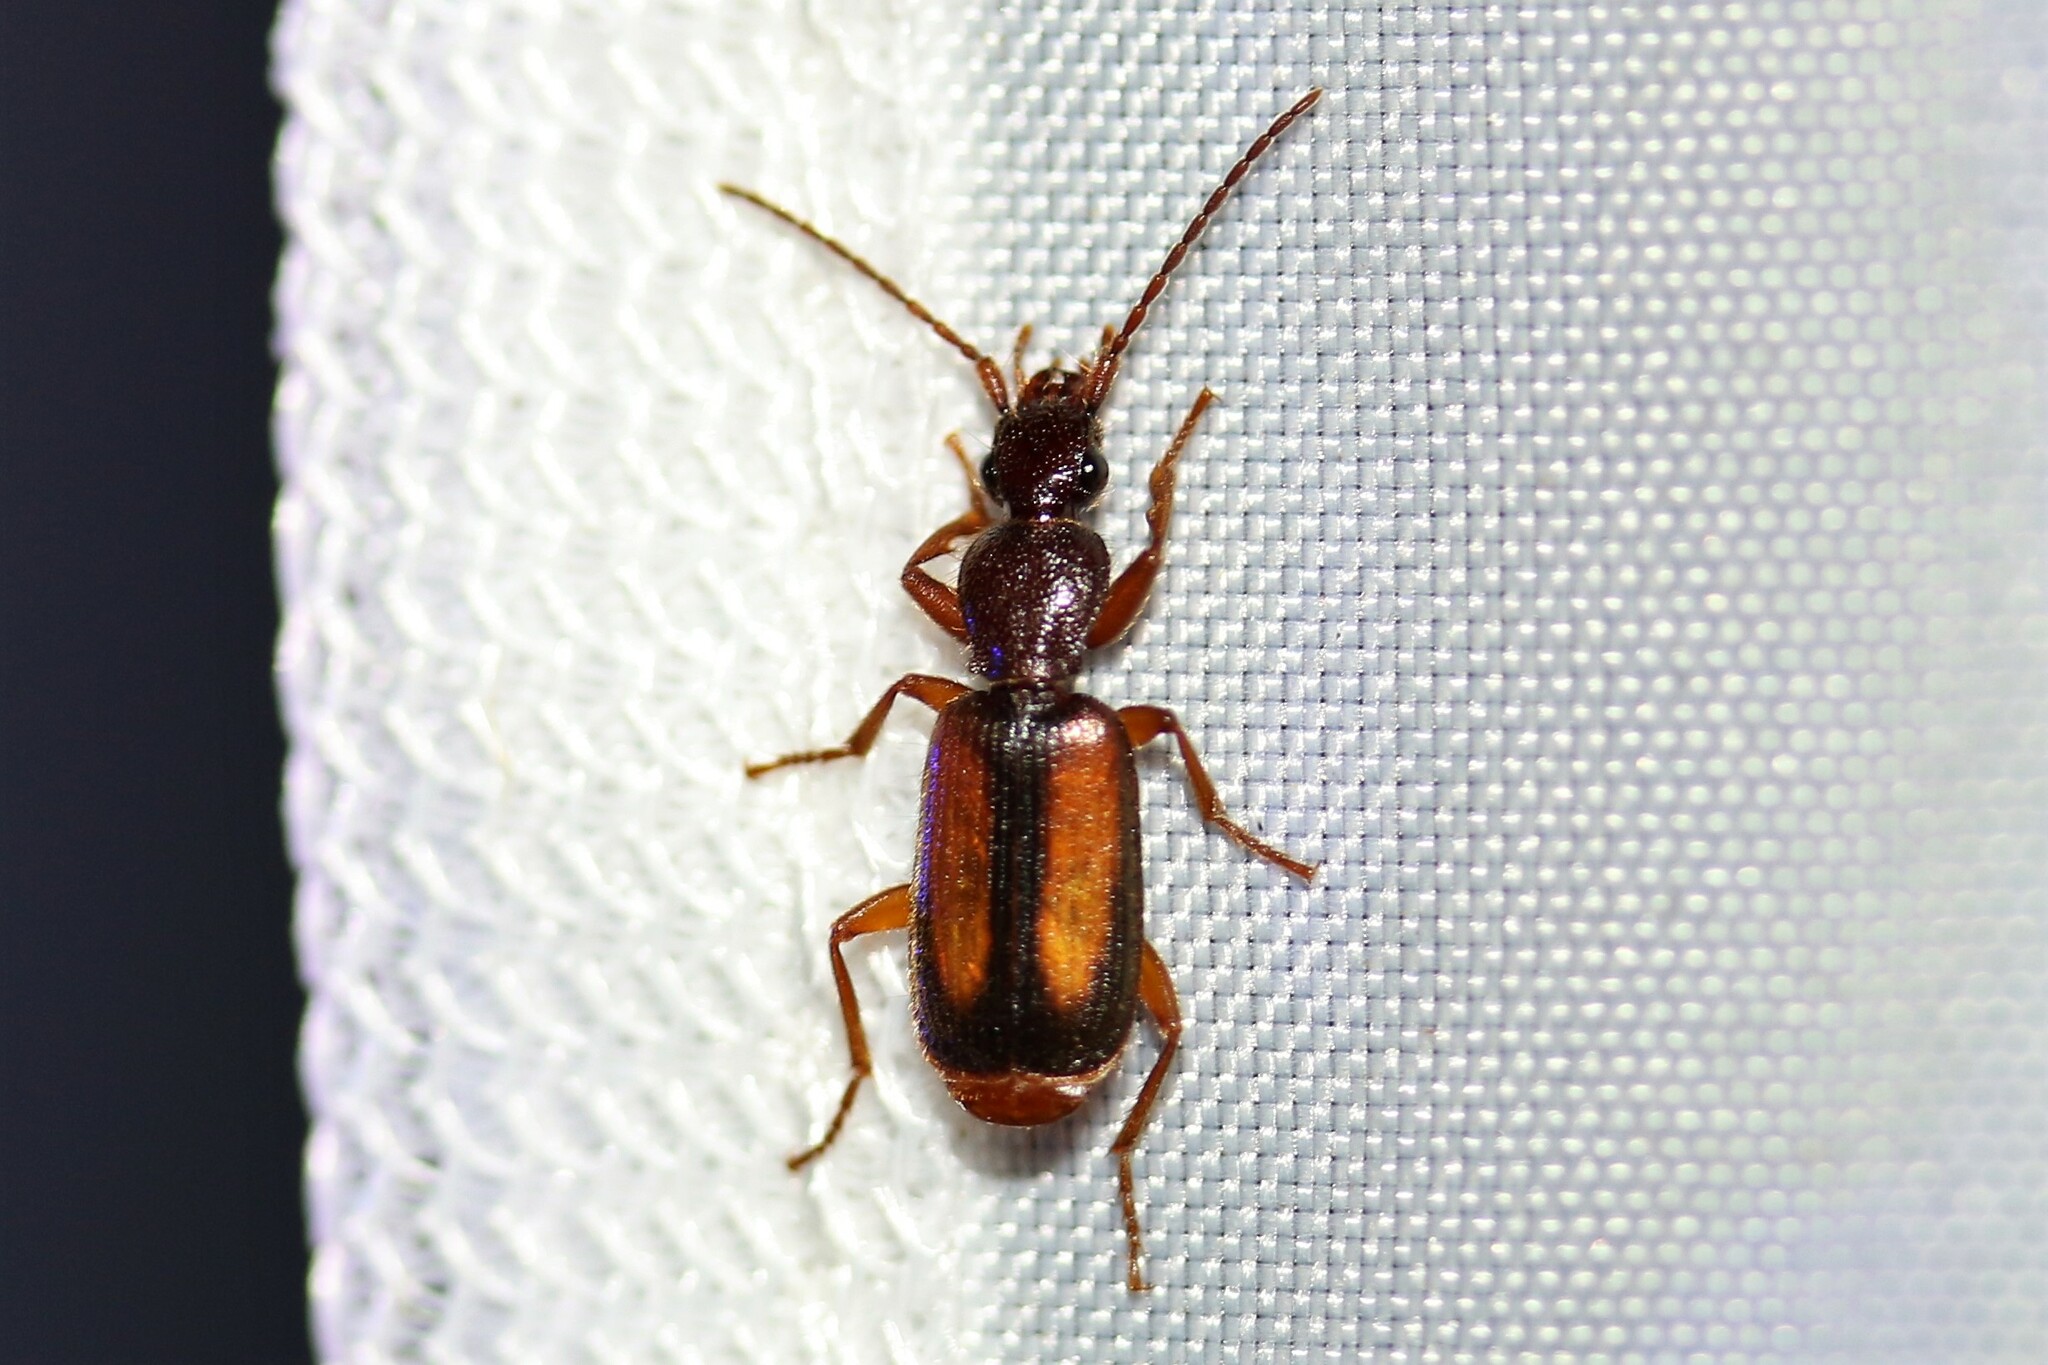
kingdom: Animalia
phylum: Arthropoda
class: Insecta
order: Coleoptera
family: Carabidae
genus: Polistichus
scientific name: Polistichus connexus
